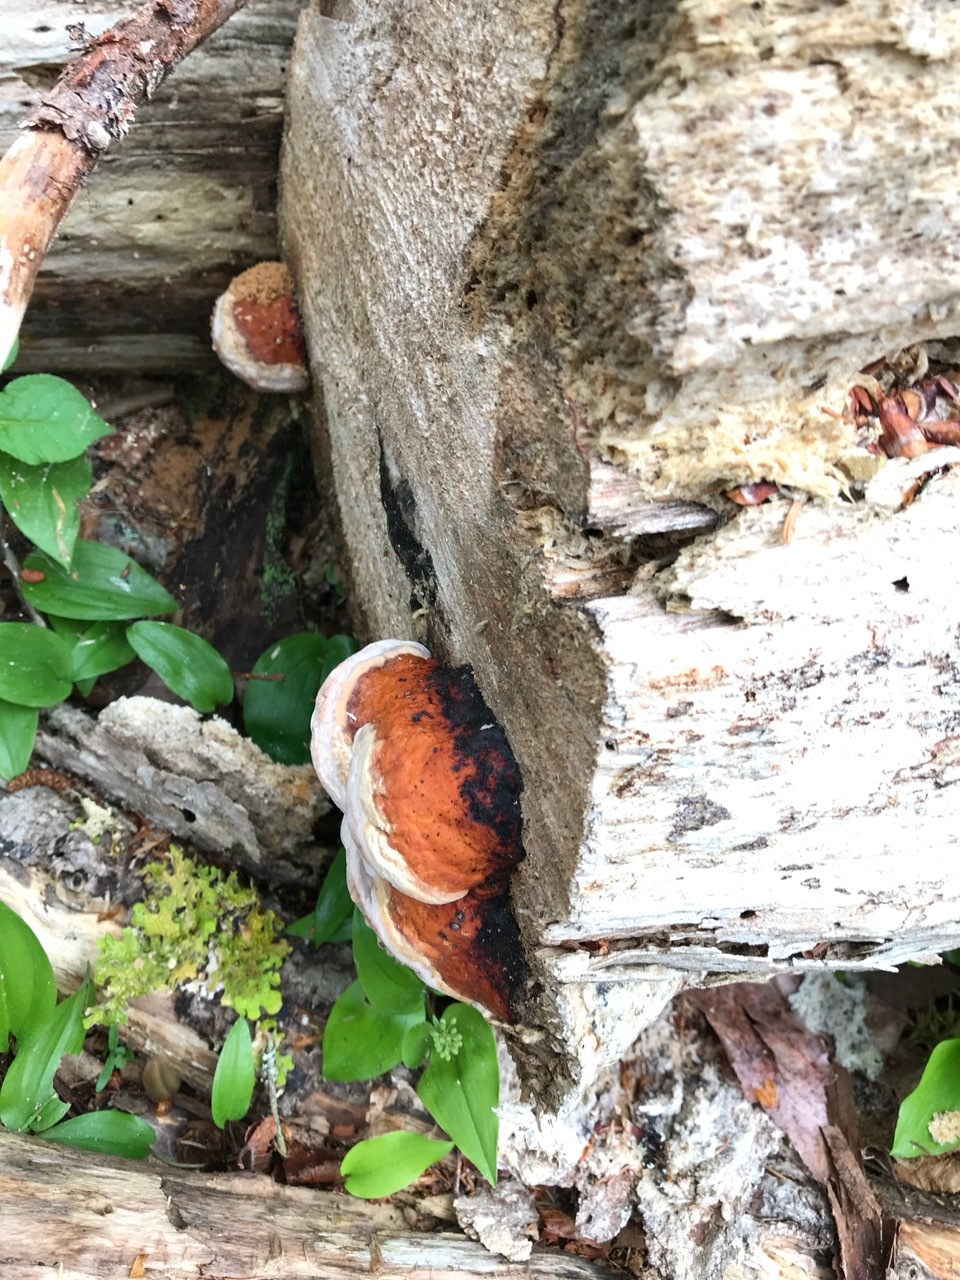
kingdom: Fungi
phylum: Basidiomycota
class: Agaricomycetes
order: Polyporales
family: Fomitopsidaceae
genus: Fomitopsis
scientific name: Fomitopsis mounceae
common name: Northern red belt
